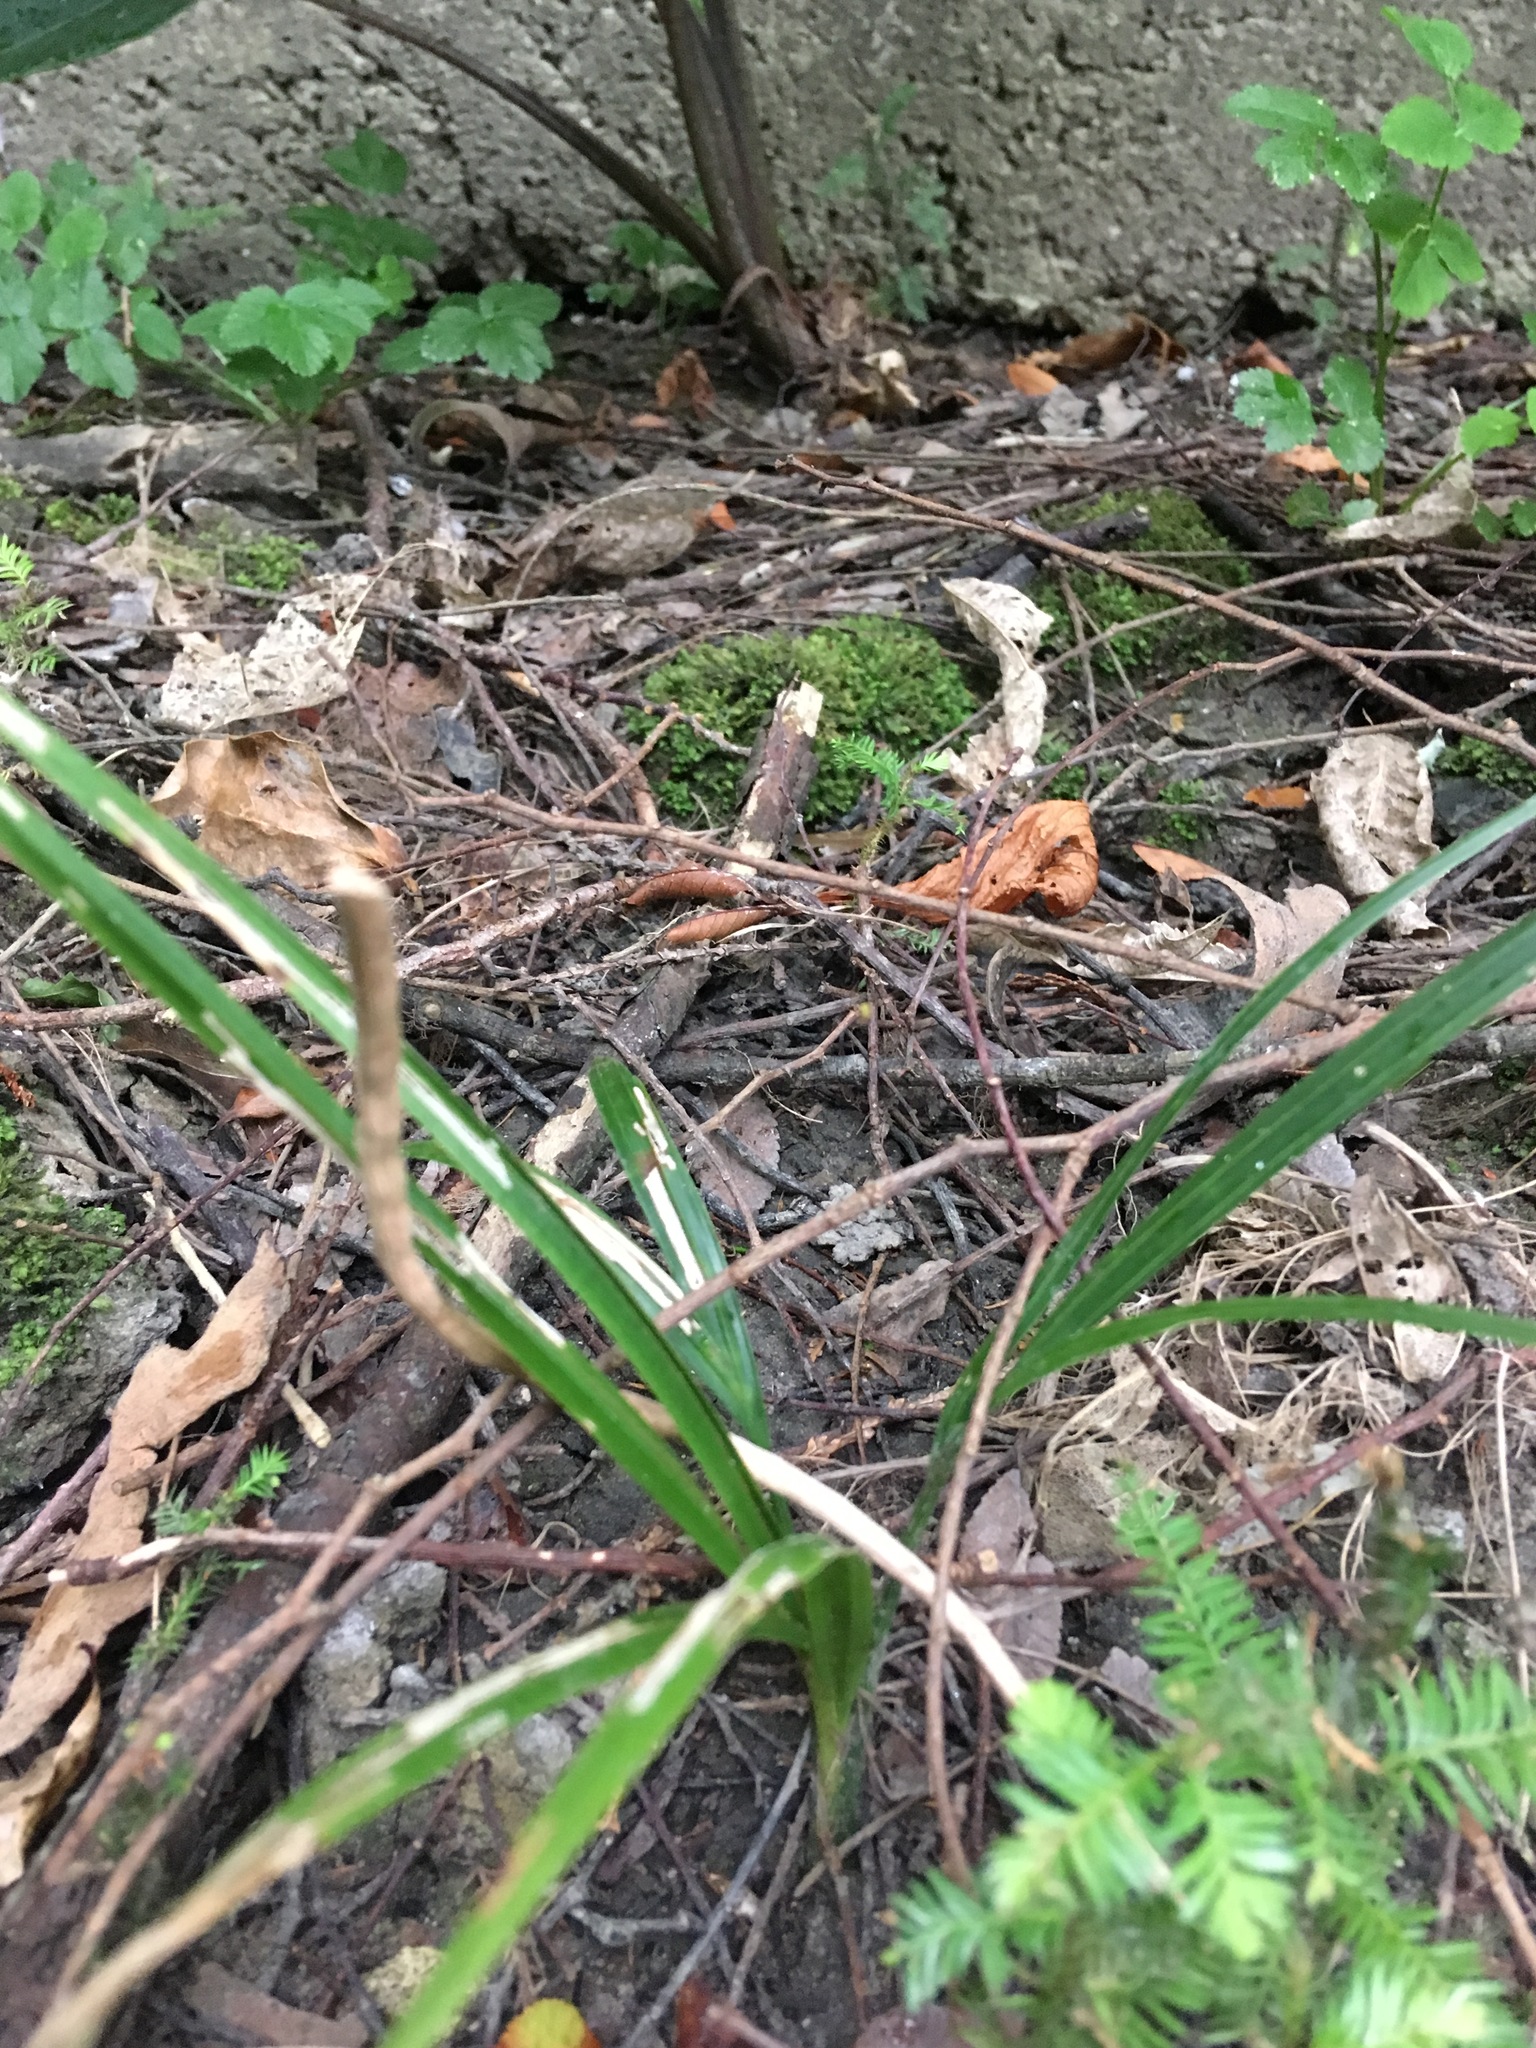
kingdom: Plantae
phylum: Tracheophyta
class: Liliopsida
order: Arecales
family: Arecaceae
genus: Rhopalostylis
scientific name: Rhopalostylis sapida
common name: Feather-duster palm
